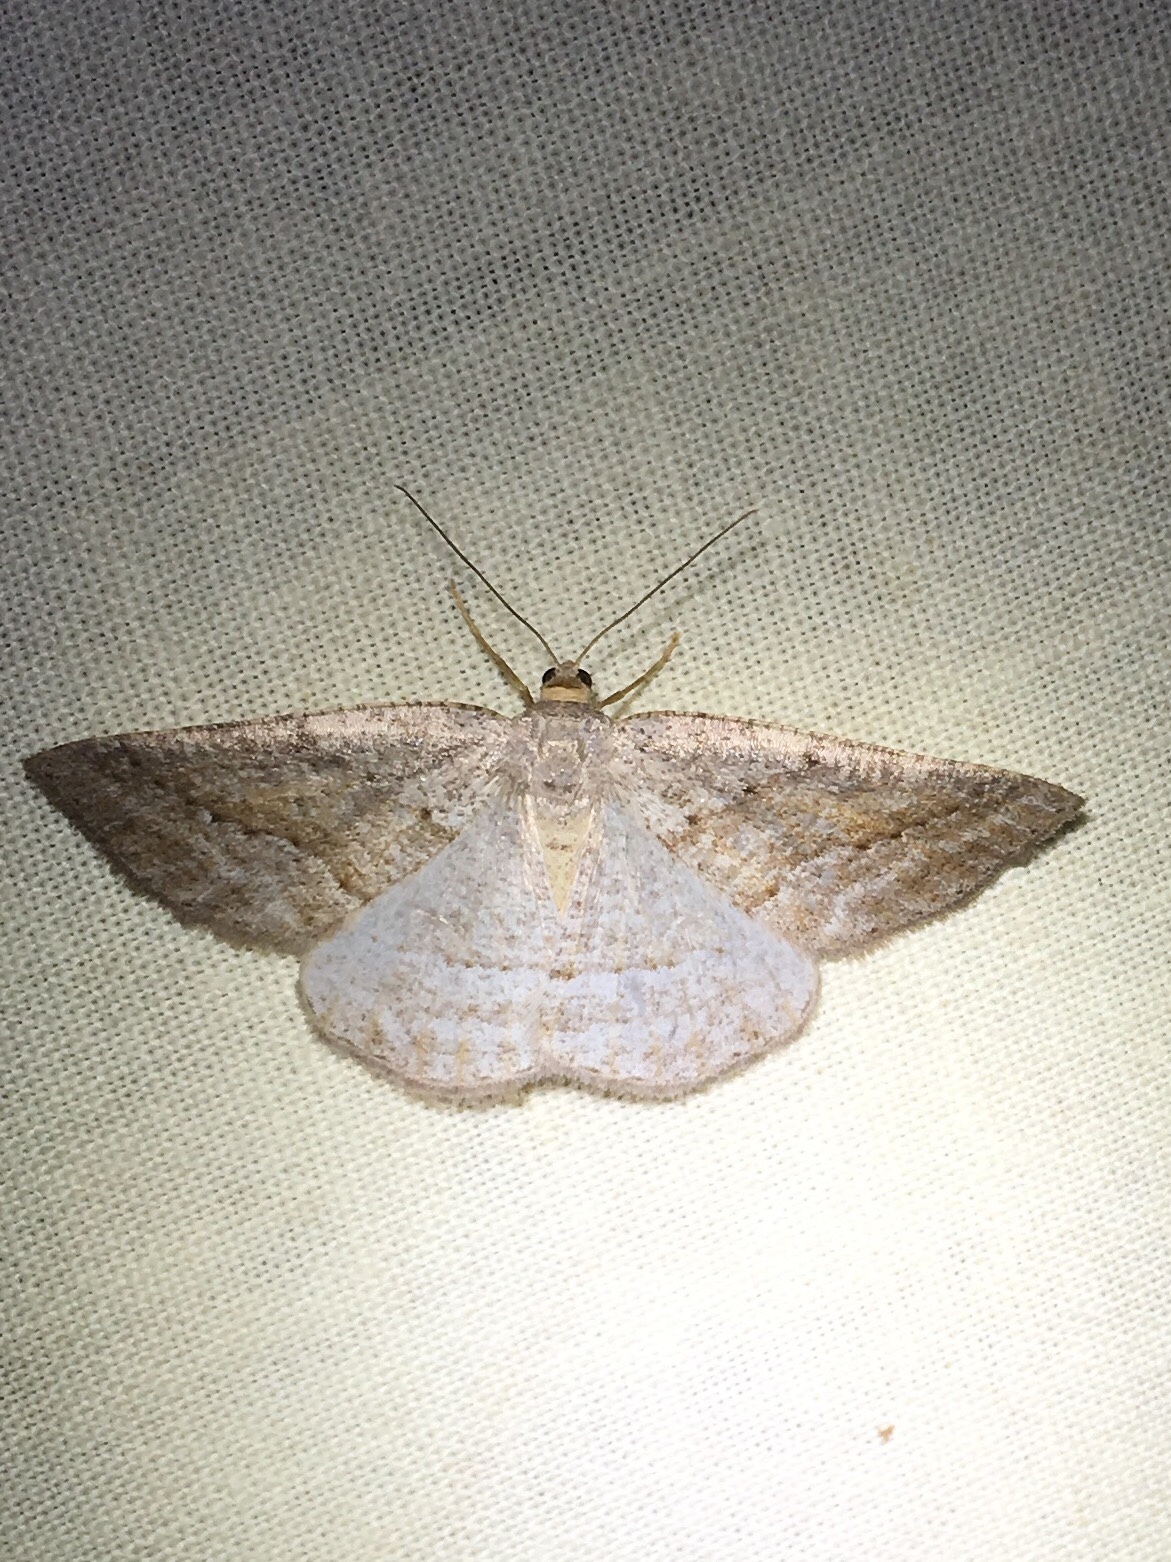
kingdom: Animalia
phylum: Arthropoda
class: Insecta
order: Lepidoptera
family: Geometridae
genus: Tacparia
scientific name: Tacparia detersata
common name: Pale alder moth
